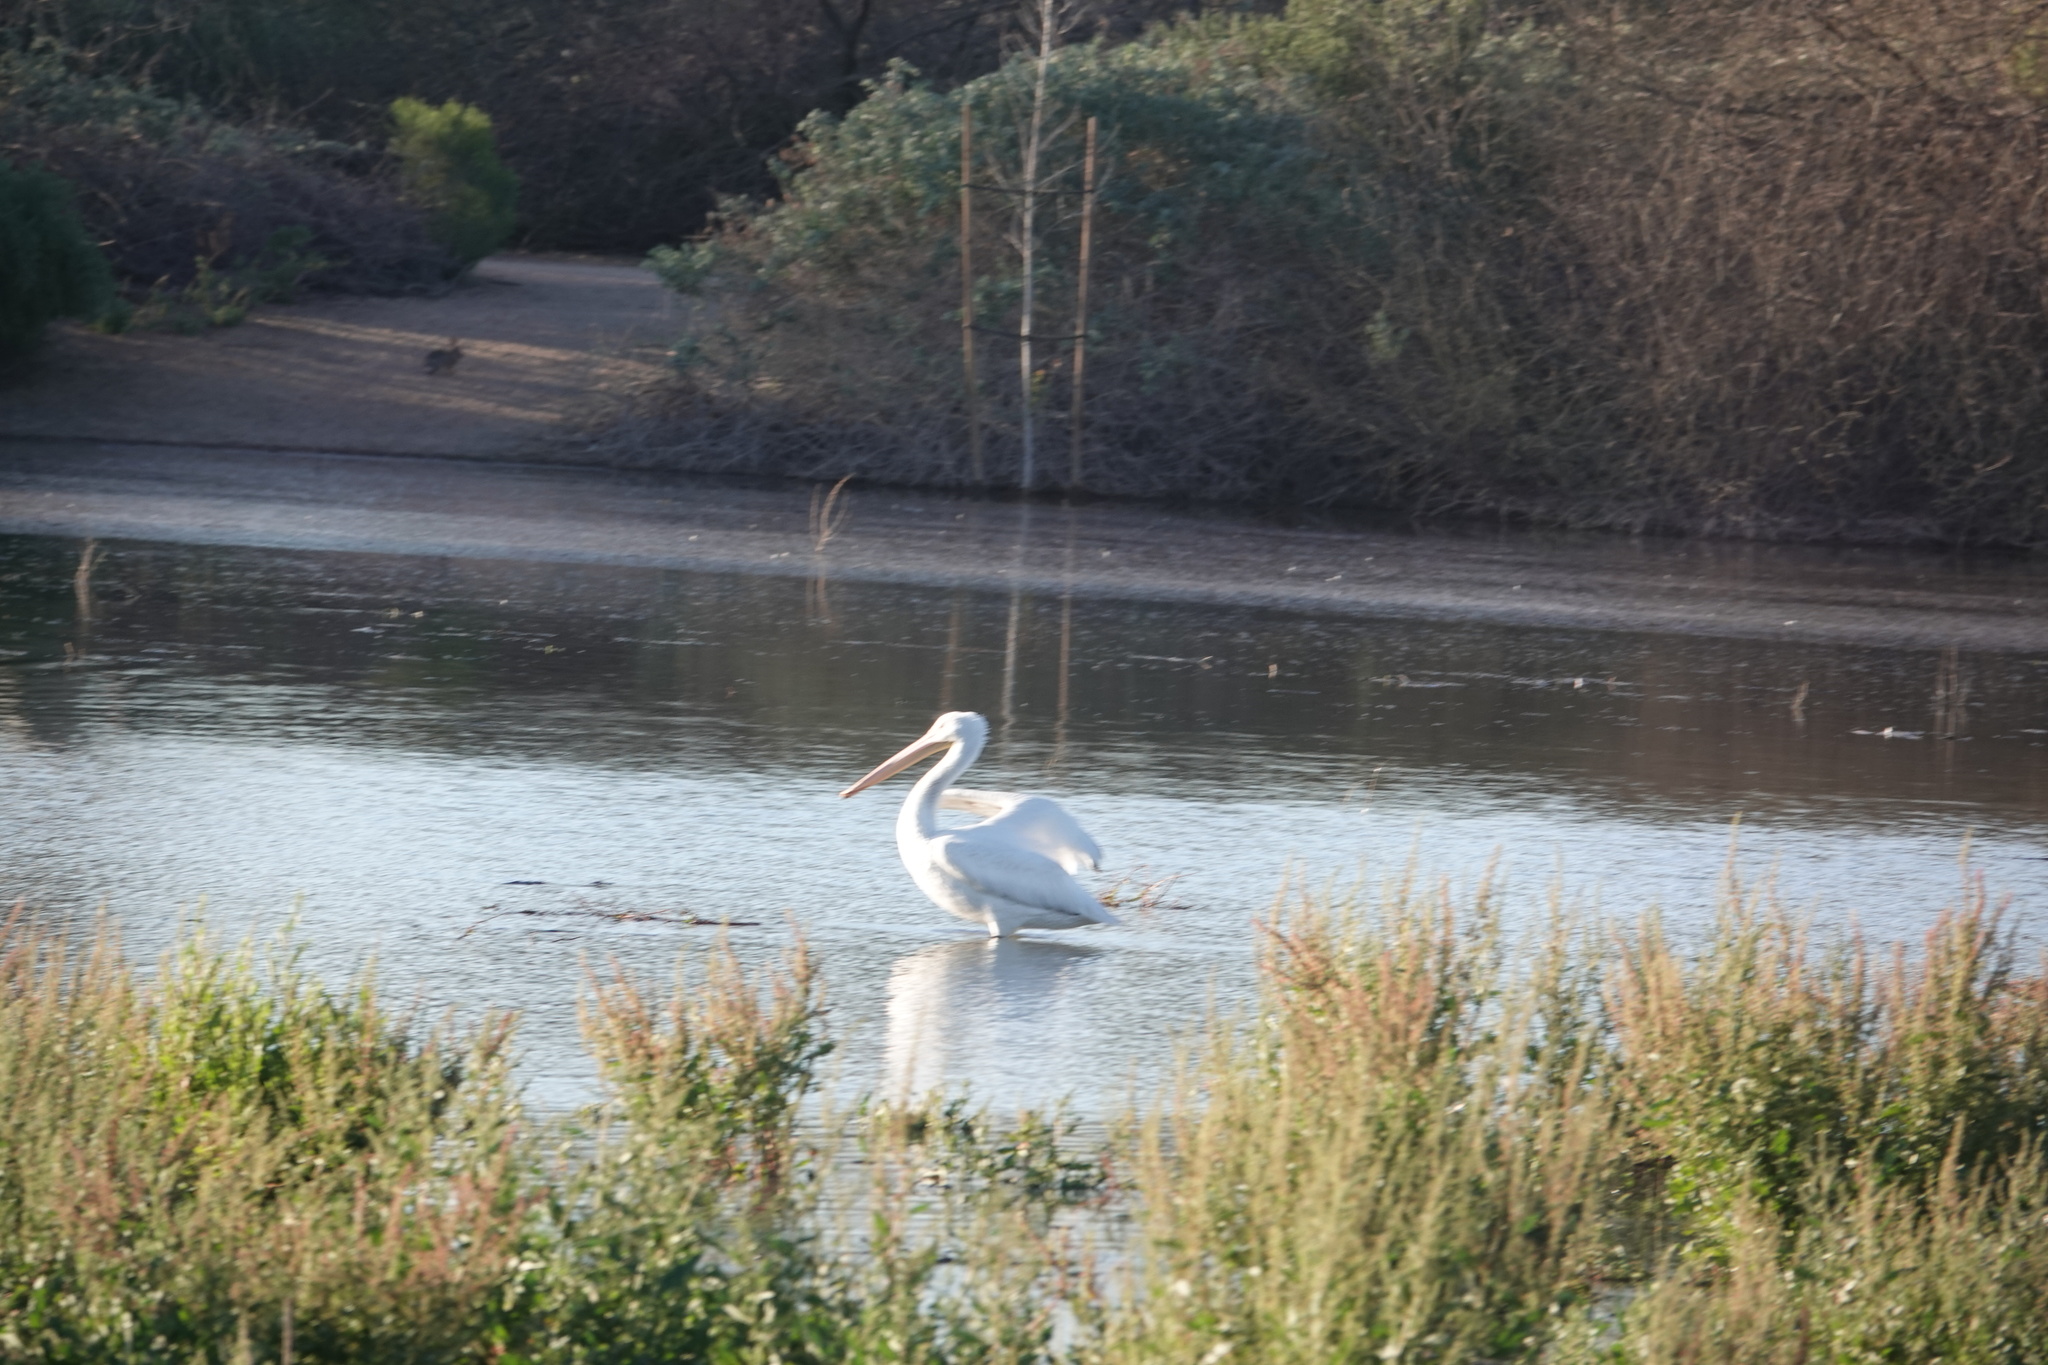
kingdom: Animalia
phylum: Chordata
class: Aves
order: Pelecaniformes
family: Pelecanidae
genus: Pelecanus
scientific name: Pelecanus erythrorhynchos
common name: American white pelican
